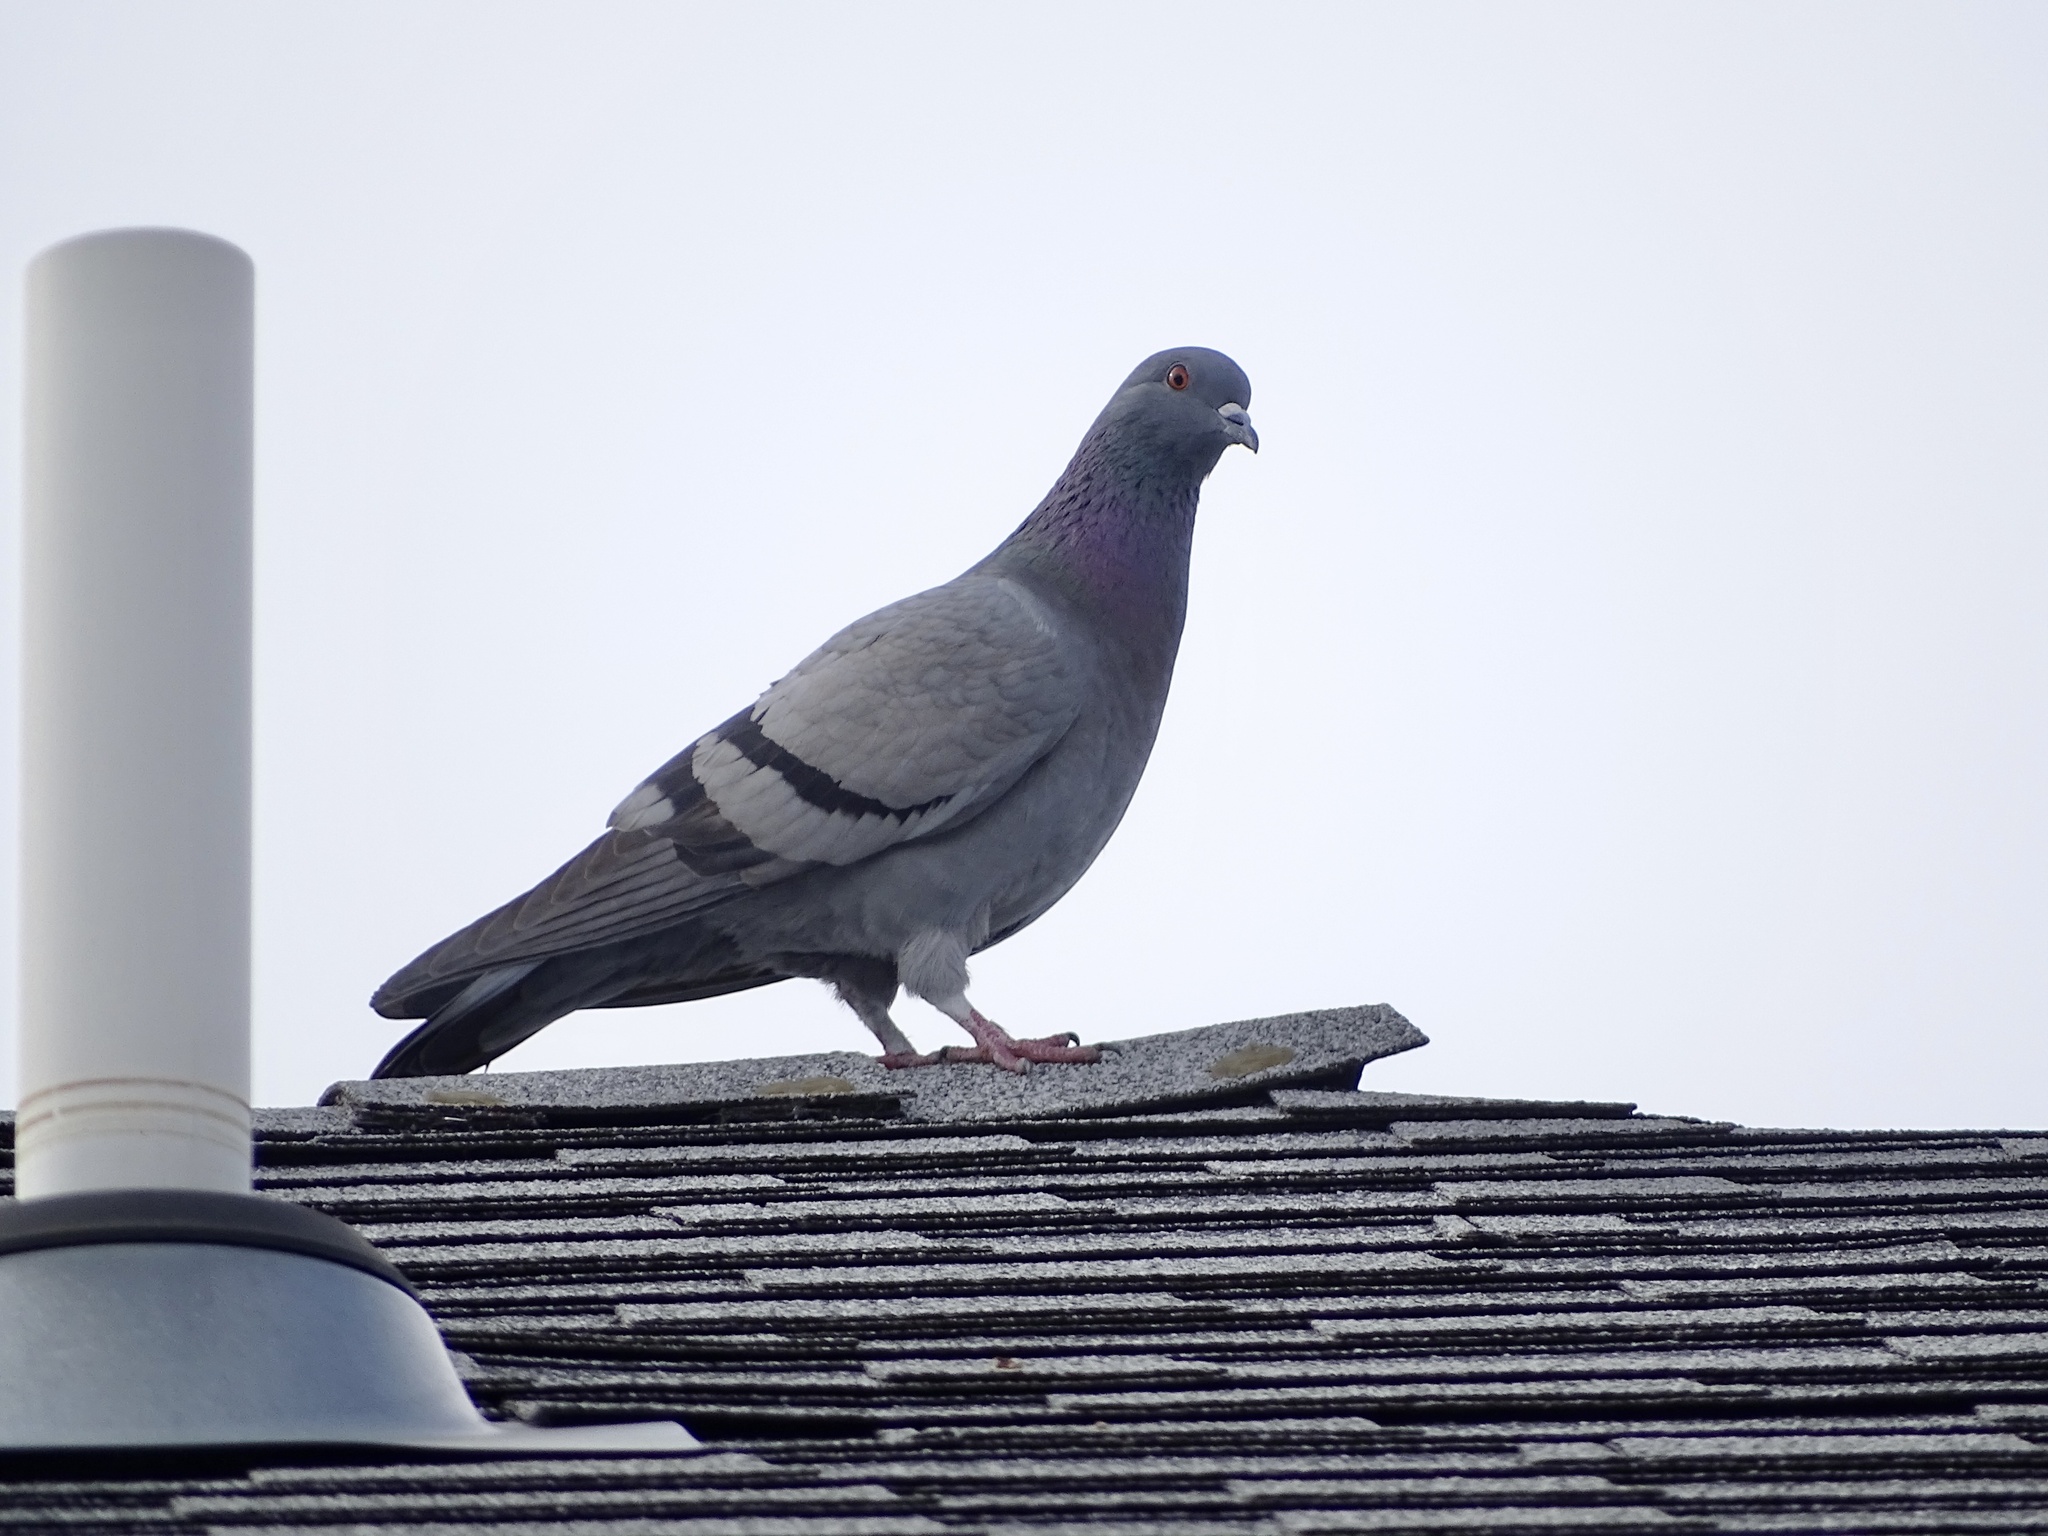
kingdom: Animalia
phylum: Chordata
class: Aves
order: Columbiformes
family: Columbidae
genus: Columba
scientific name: Columba livia
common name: Rock pigeon
